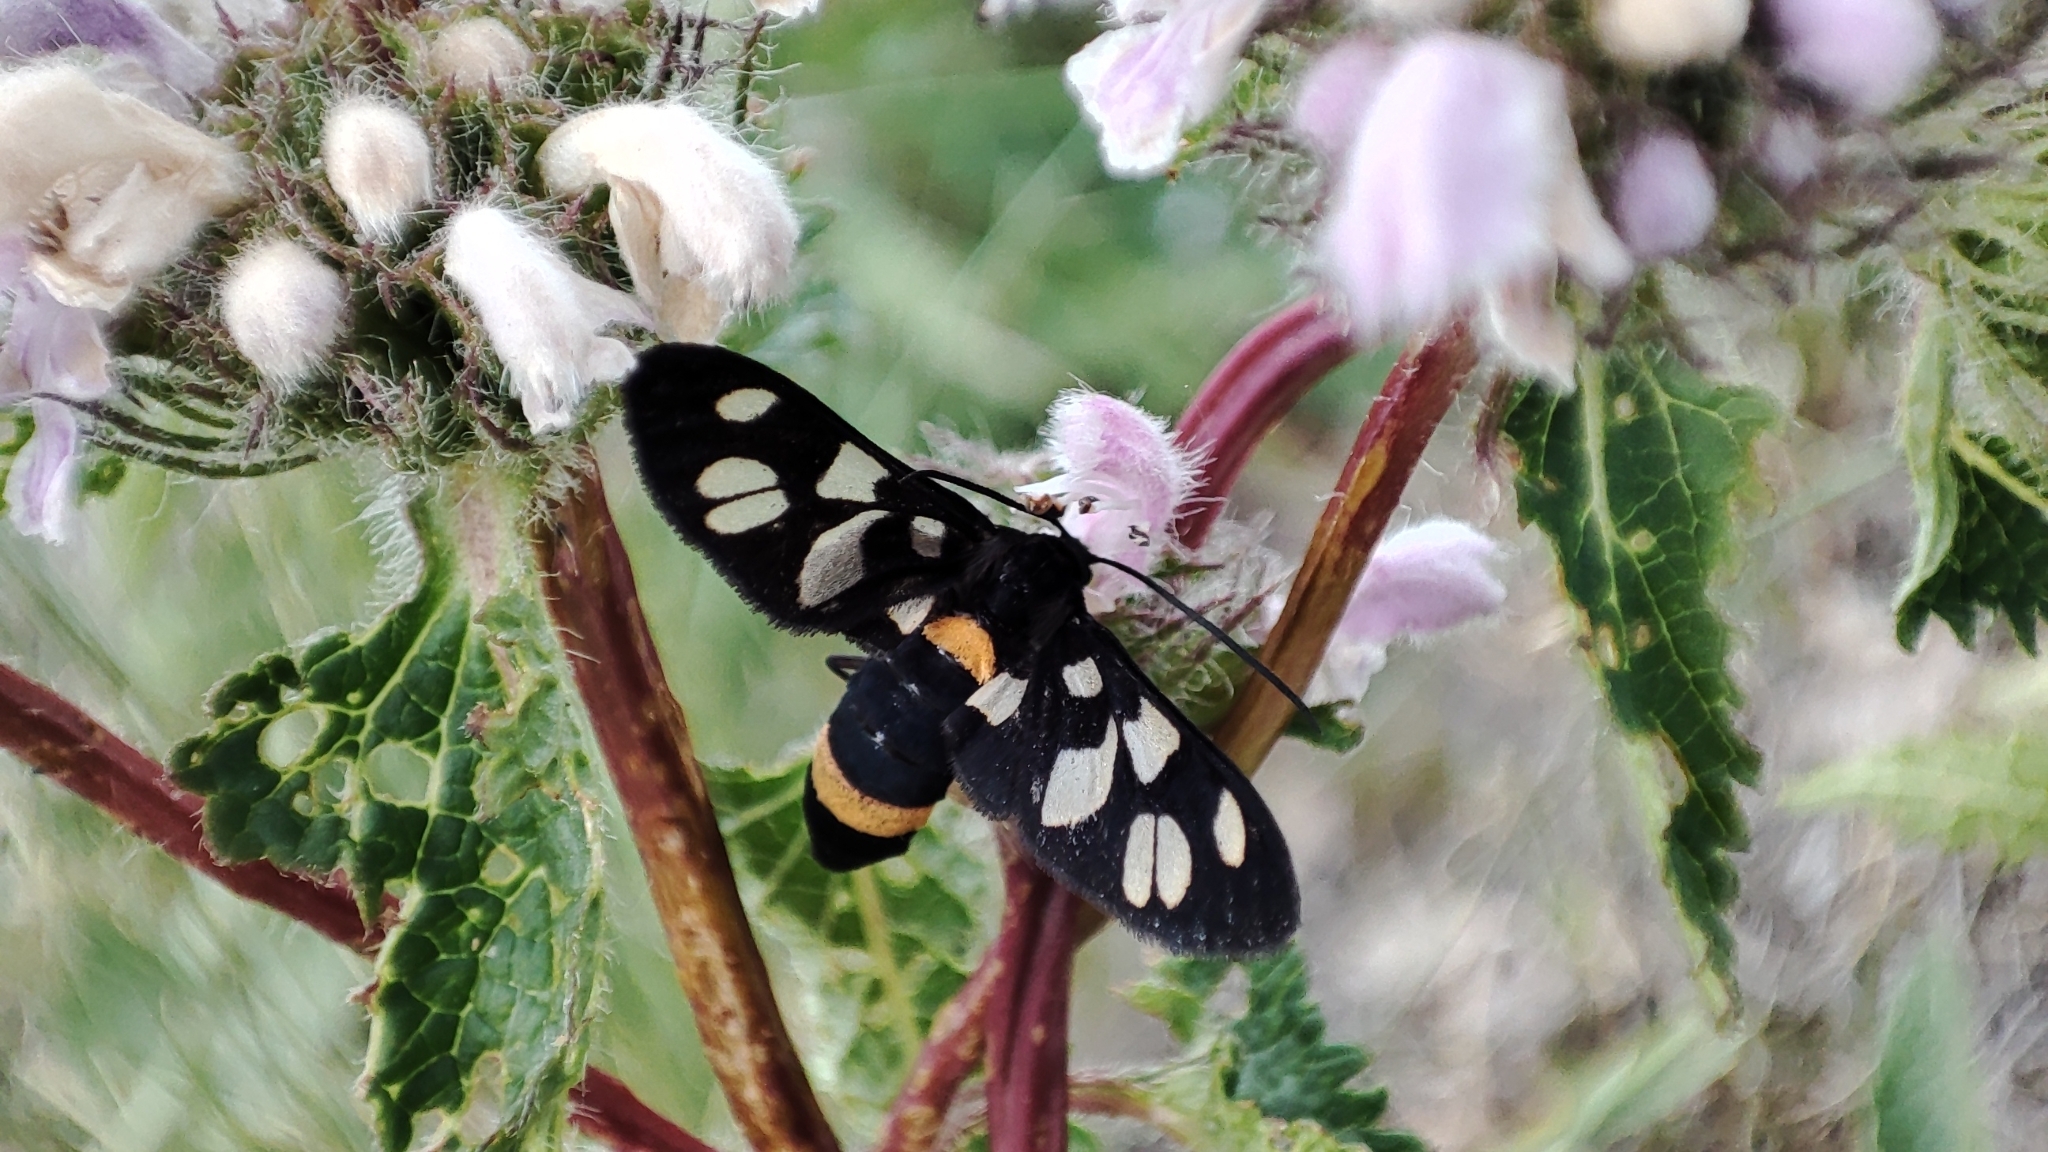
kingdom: Animalia
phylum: Arthropoda
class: Insecta
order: Lepidoptera
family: Erebidae
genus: Amata
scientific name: Amata caspia
